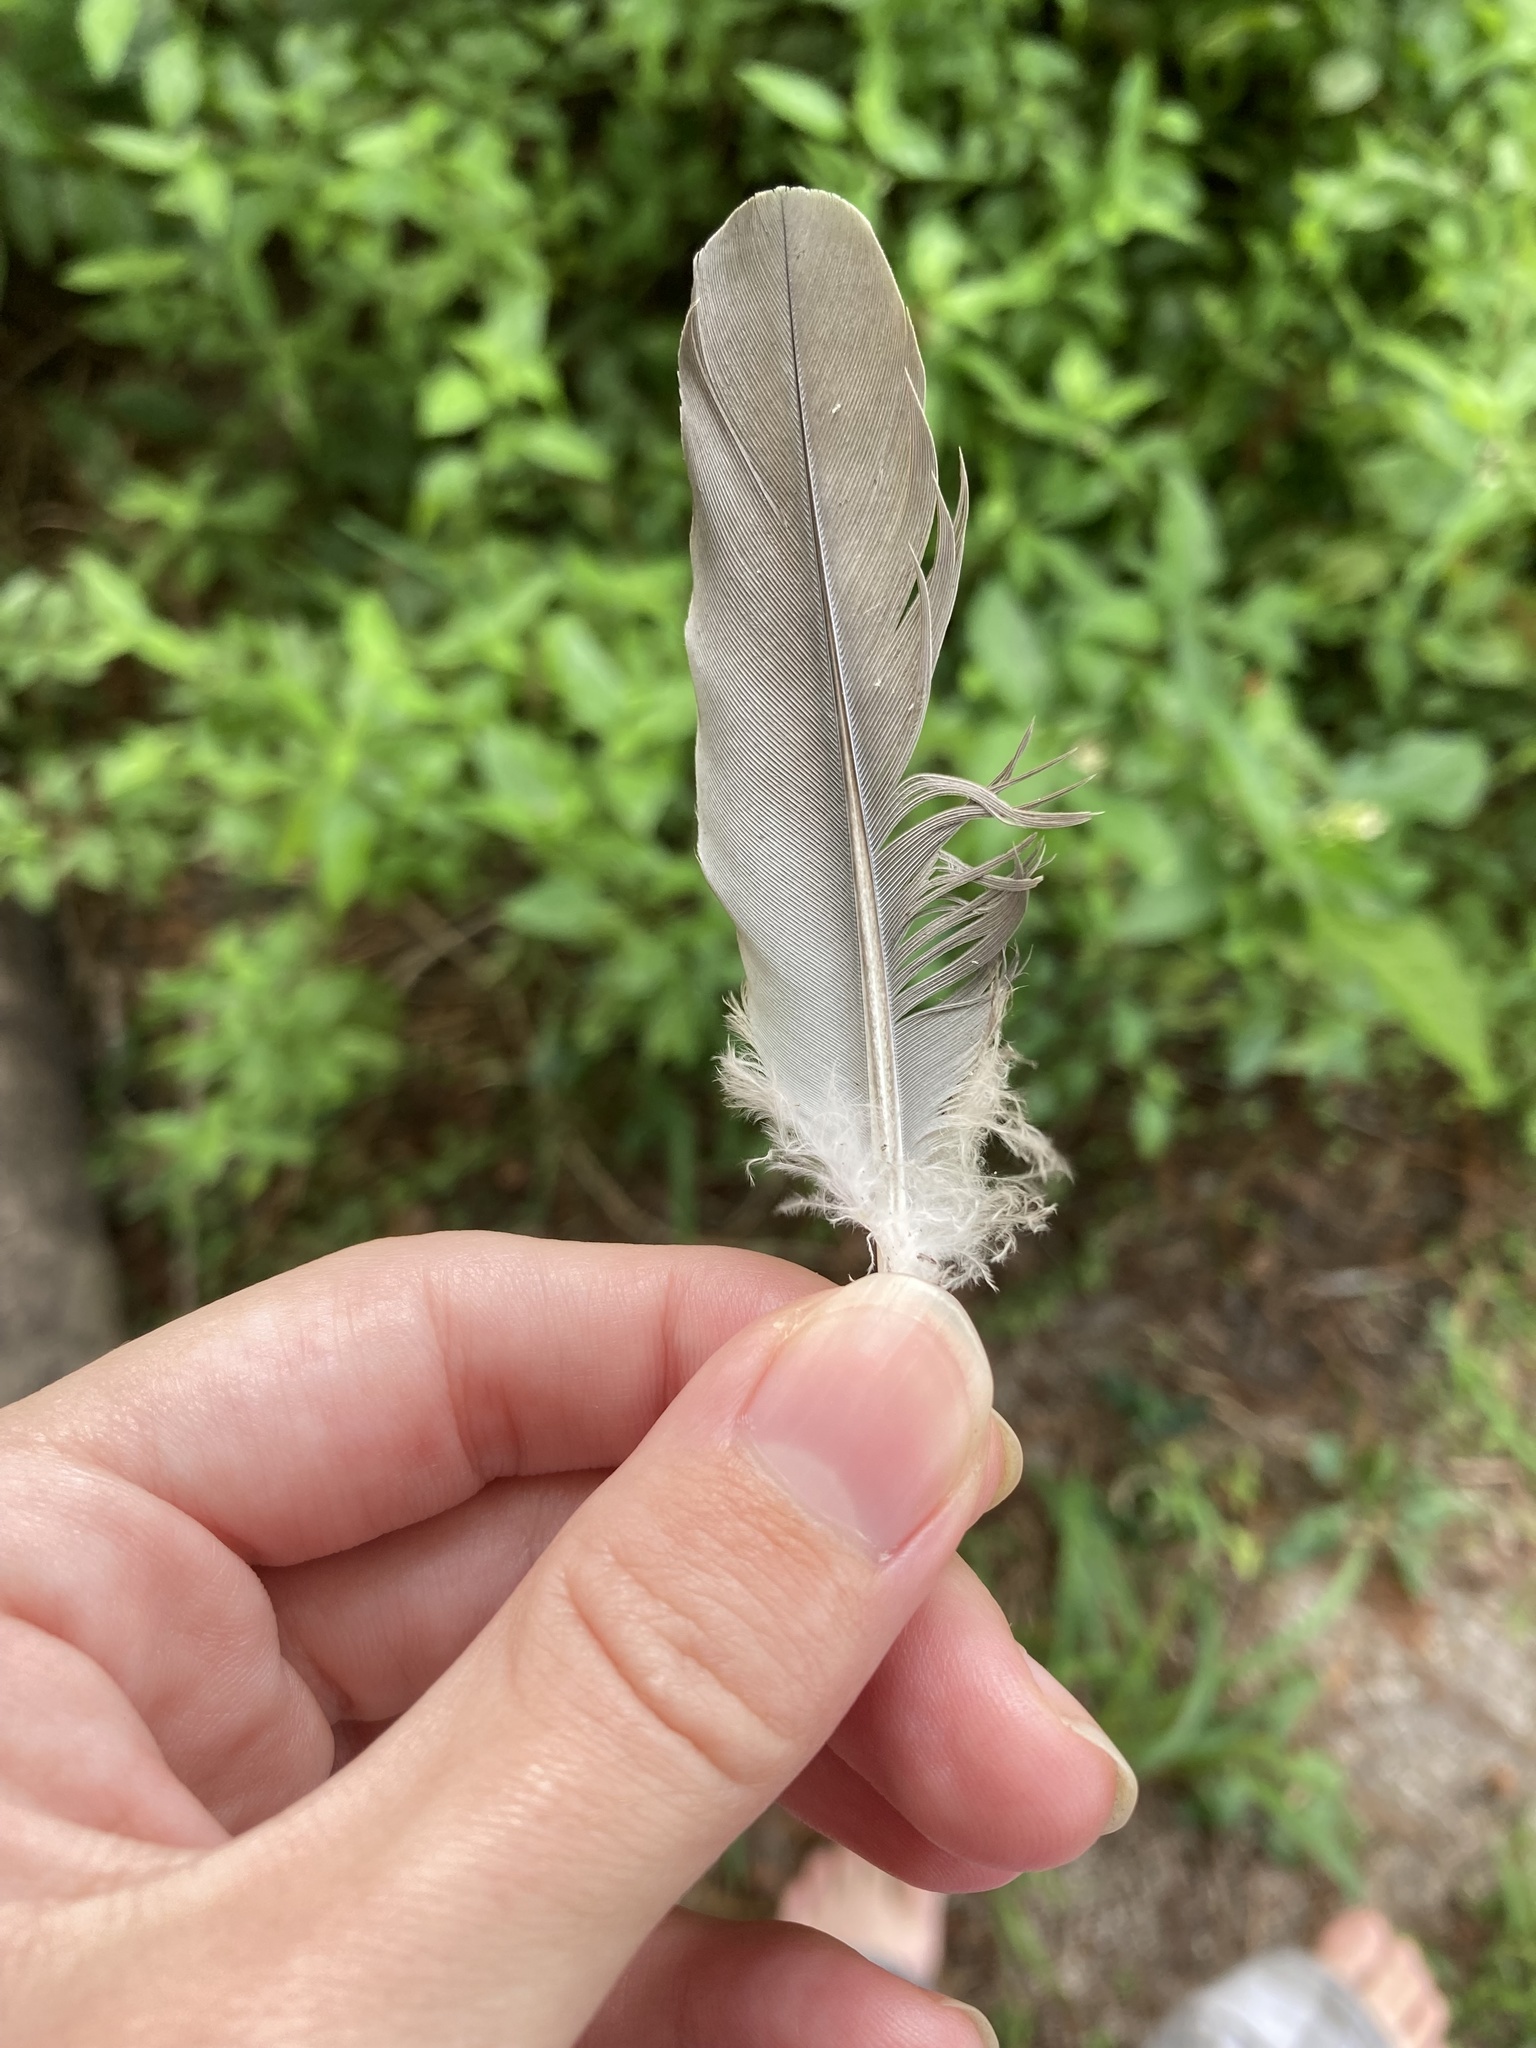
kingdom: Animalia
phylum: Chordata
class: Aves
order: Columbiformes
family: Columbidae
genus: Zenaida
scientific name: Zenaida asiatica
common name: White-winged dove
